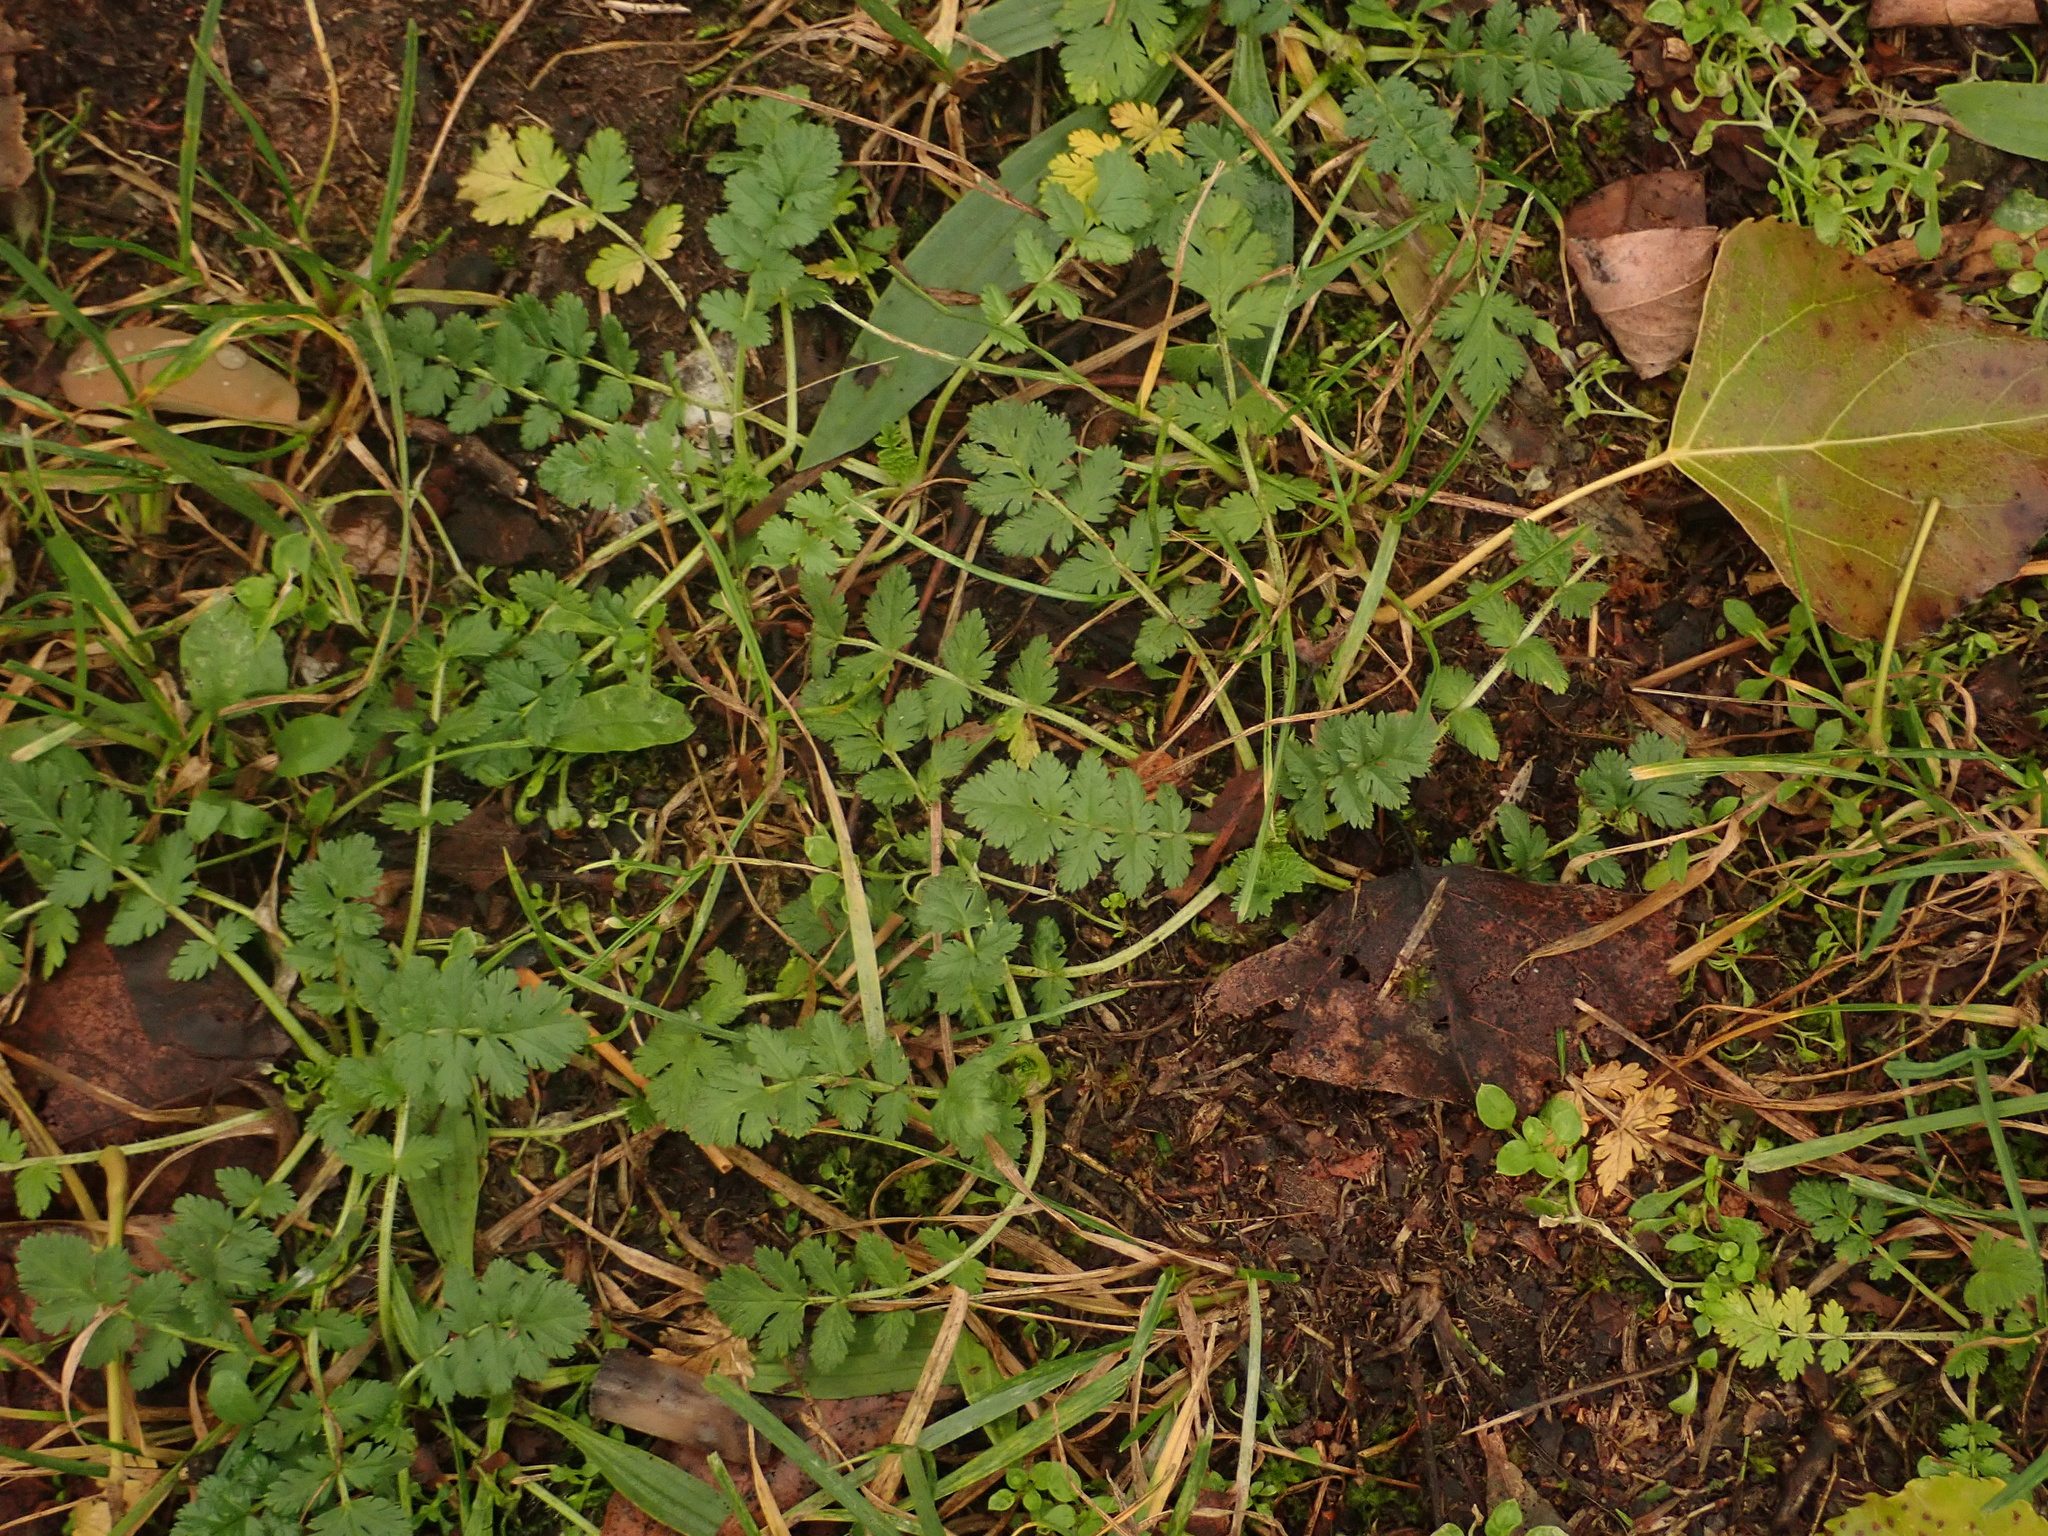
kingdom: Plantae
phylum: Tracheophyta
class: Magnoliopsida
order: Geraniales
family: Geraniaceae
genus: Erodium
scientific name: Erodium cicutarium
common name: Common stork's-bill
